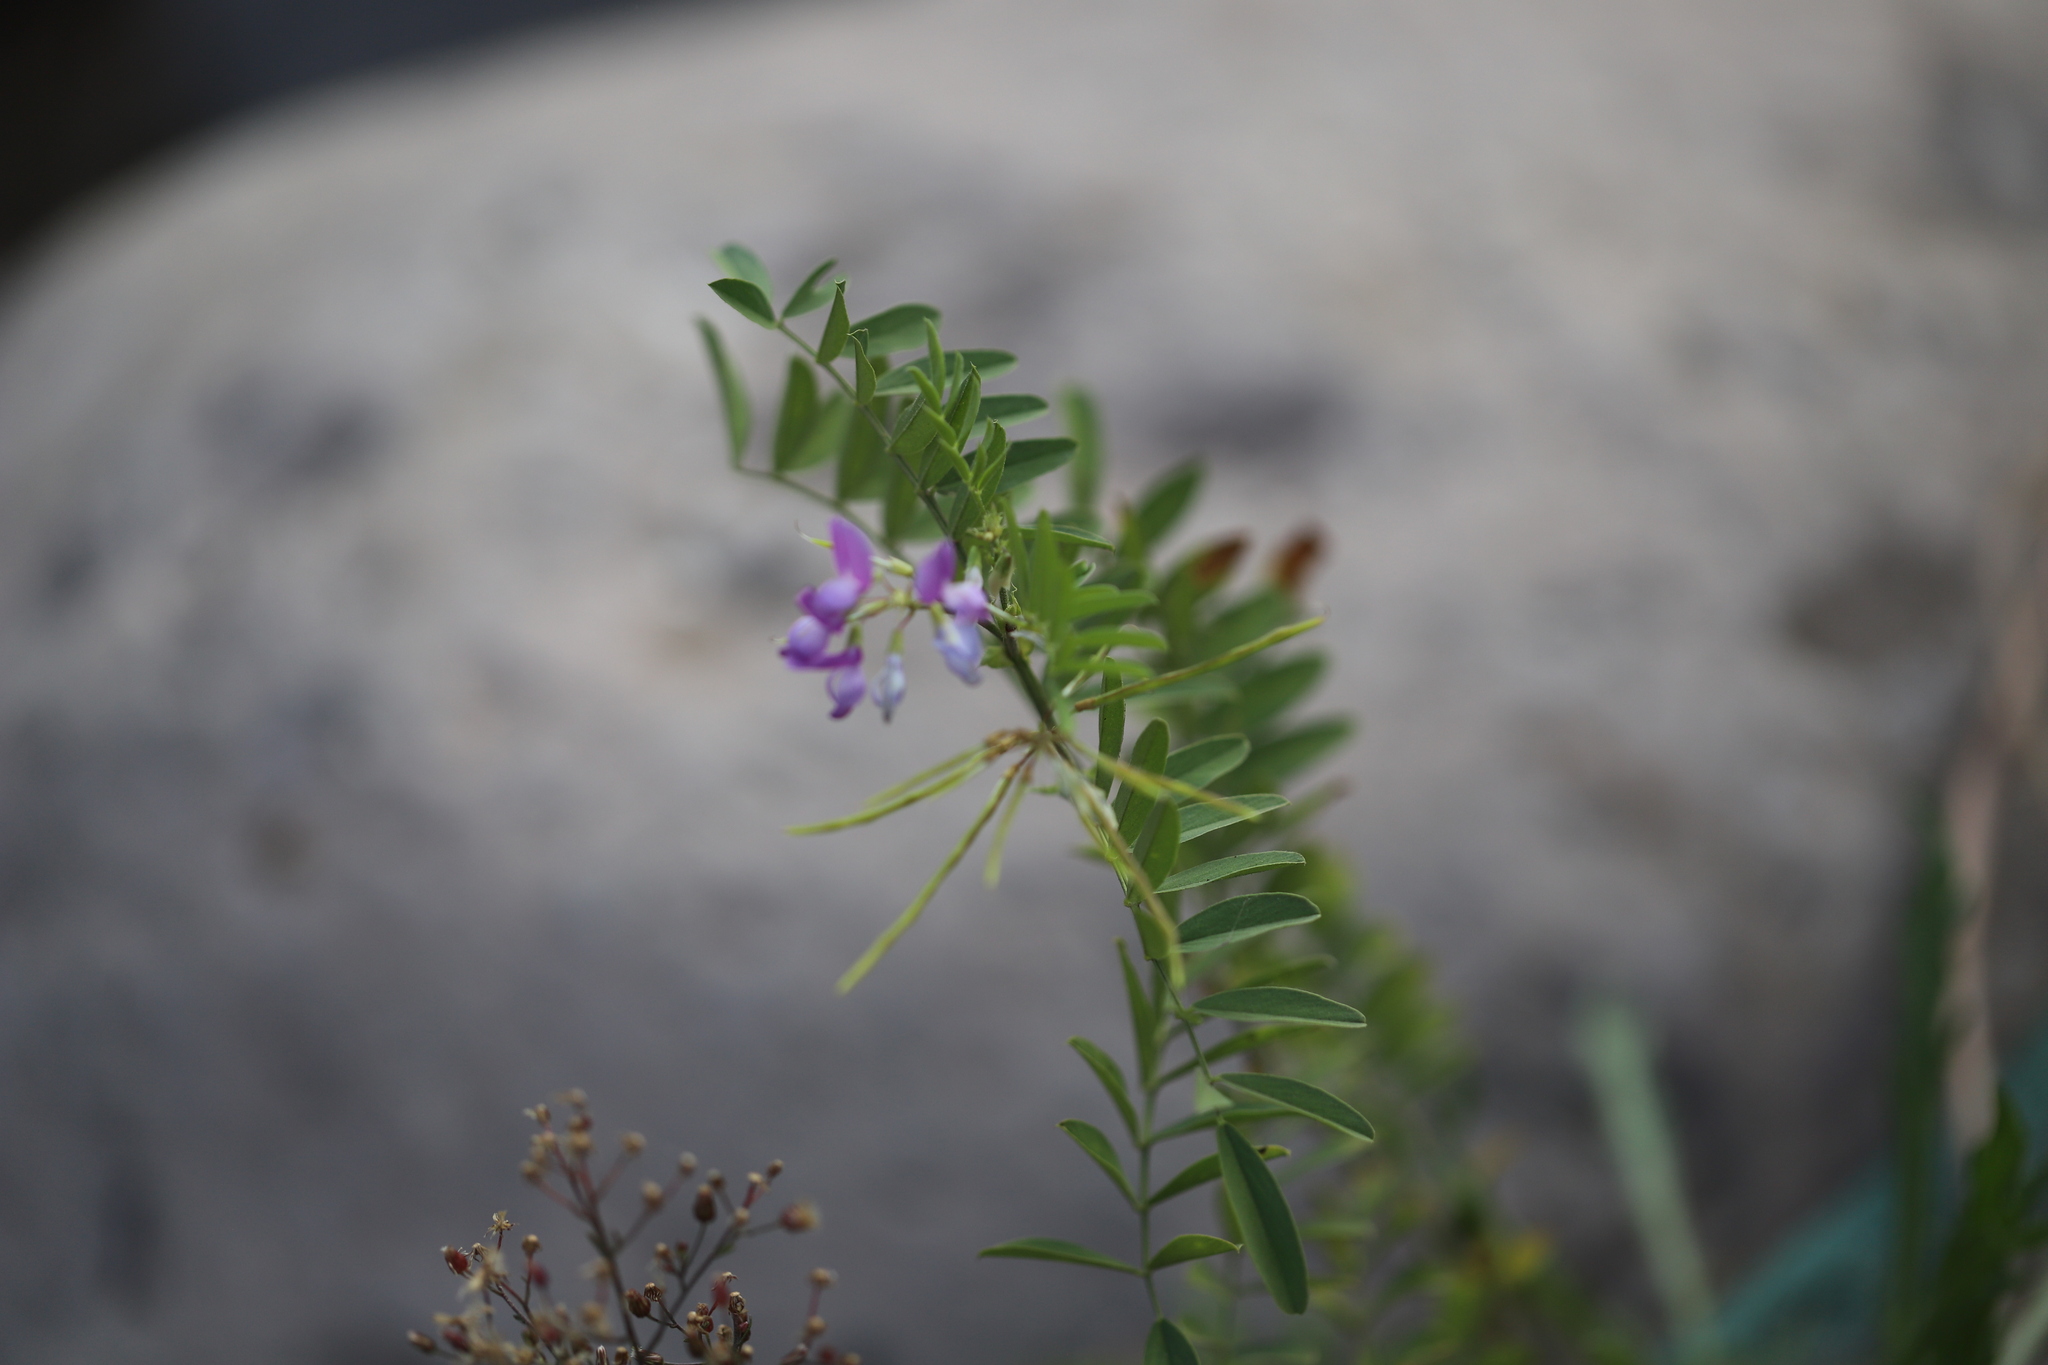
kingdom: Plantae
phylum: Tracheophyta
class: Magnoliopsida
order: Fabales
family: Fabaceae
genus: Galega
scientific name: Galega officinalis
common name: Goat's-rue
